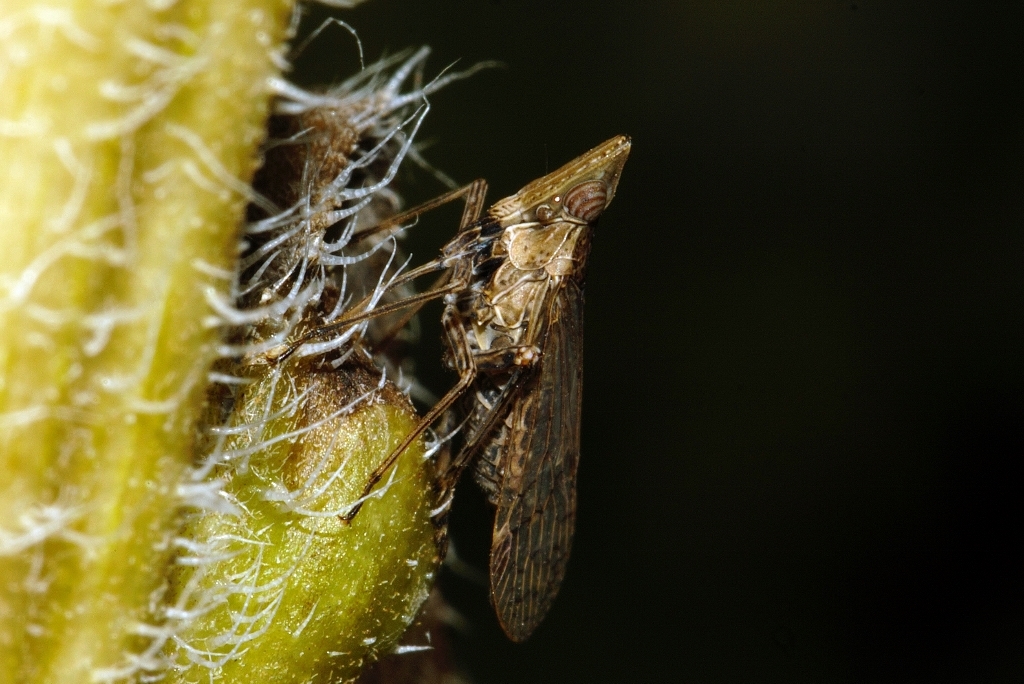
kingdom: Animalia
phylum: Arthropoda
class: Insecta
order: Hemiptera
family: Dictyopharidae
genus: Philotheria
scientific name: Philotheria natalensis
